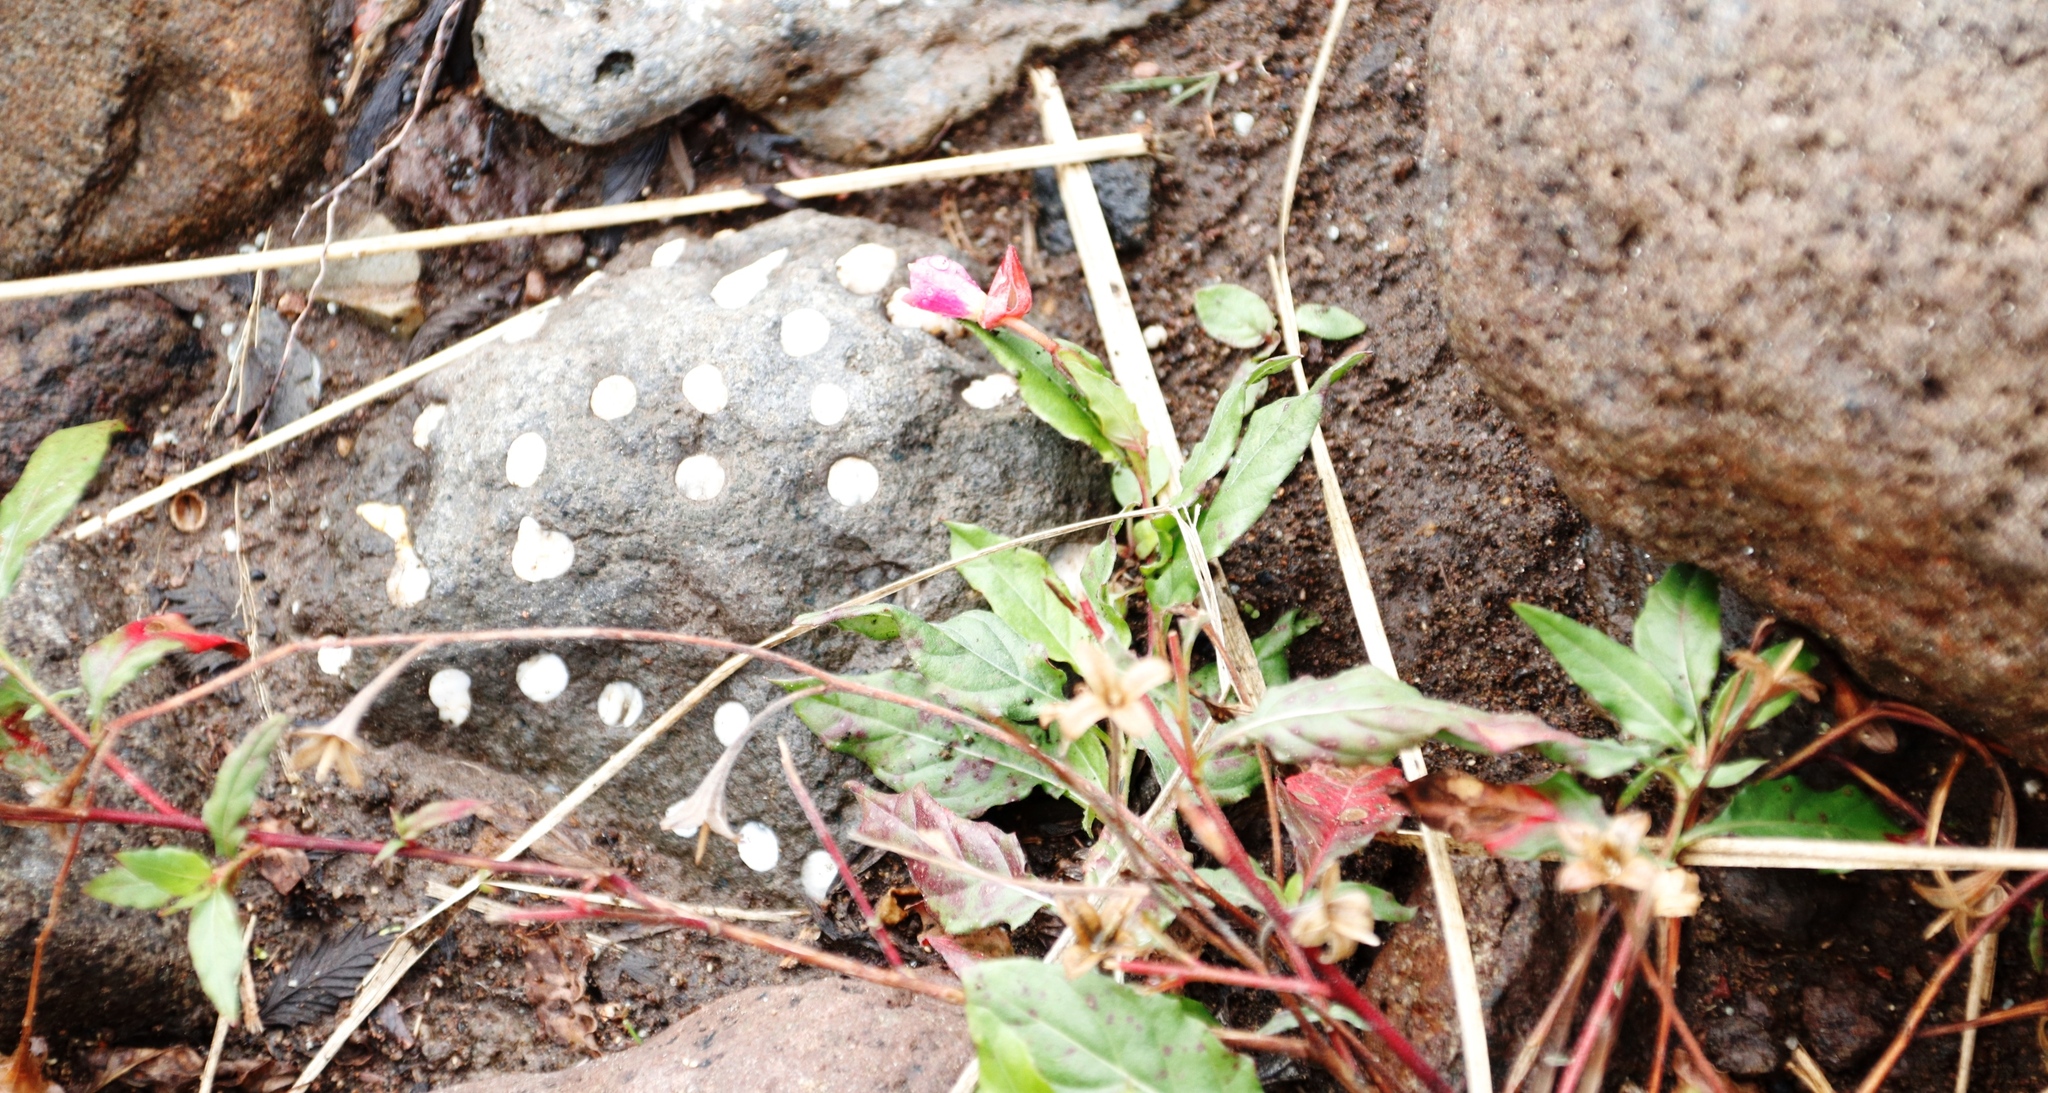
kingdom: Plantae
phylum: Tracheophyta
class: Magnoliopsida
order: Myrtales
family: Onagraceae
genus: Oenothera
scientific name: Oenothera rosea
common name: Rosy evening-primrose
